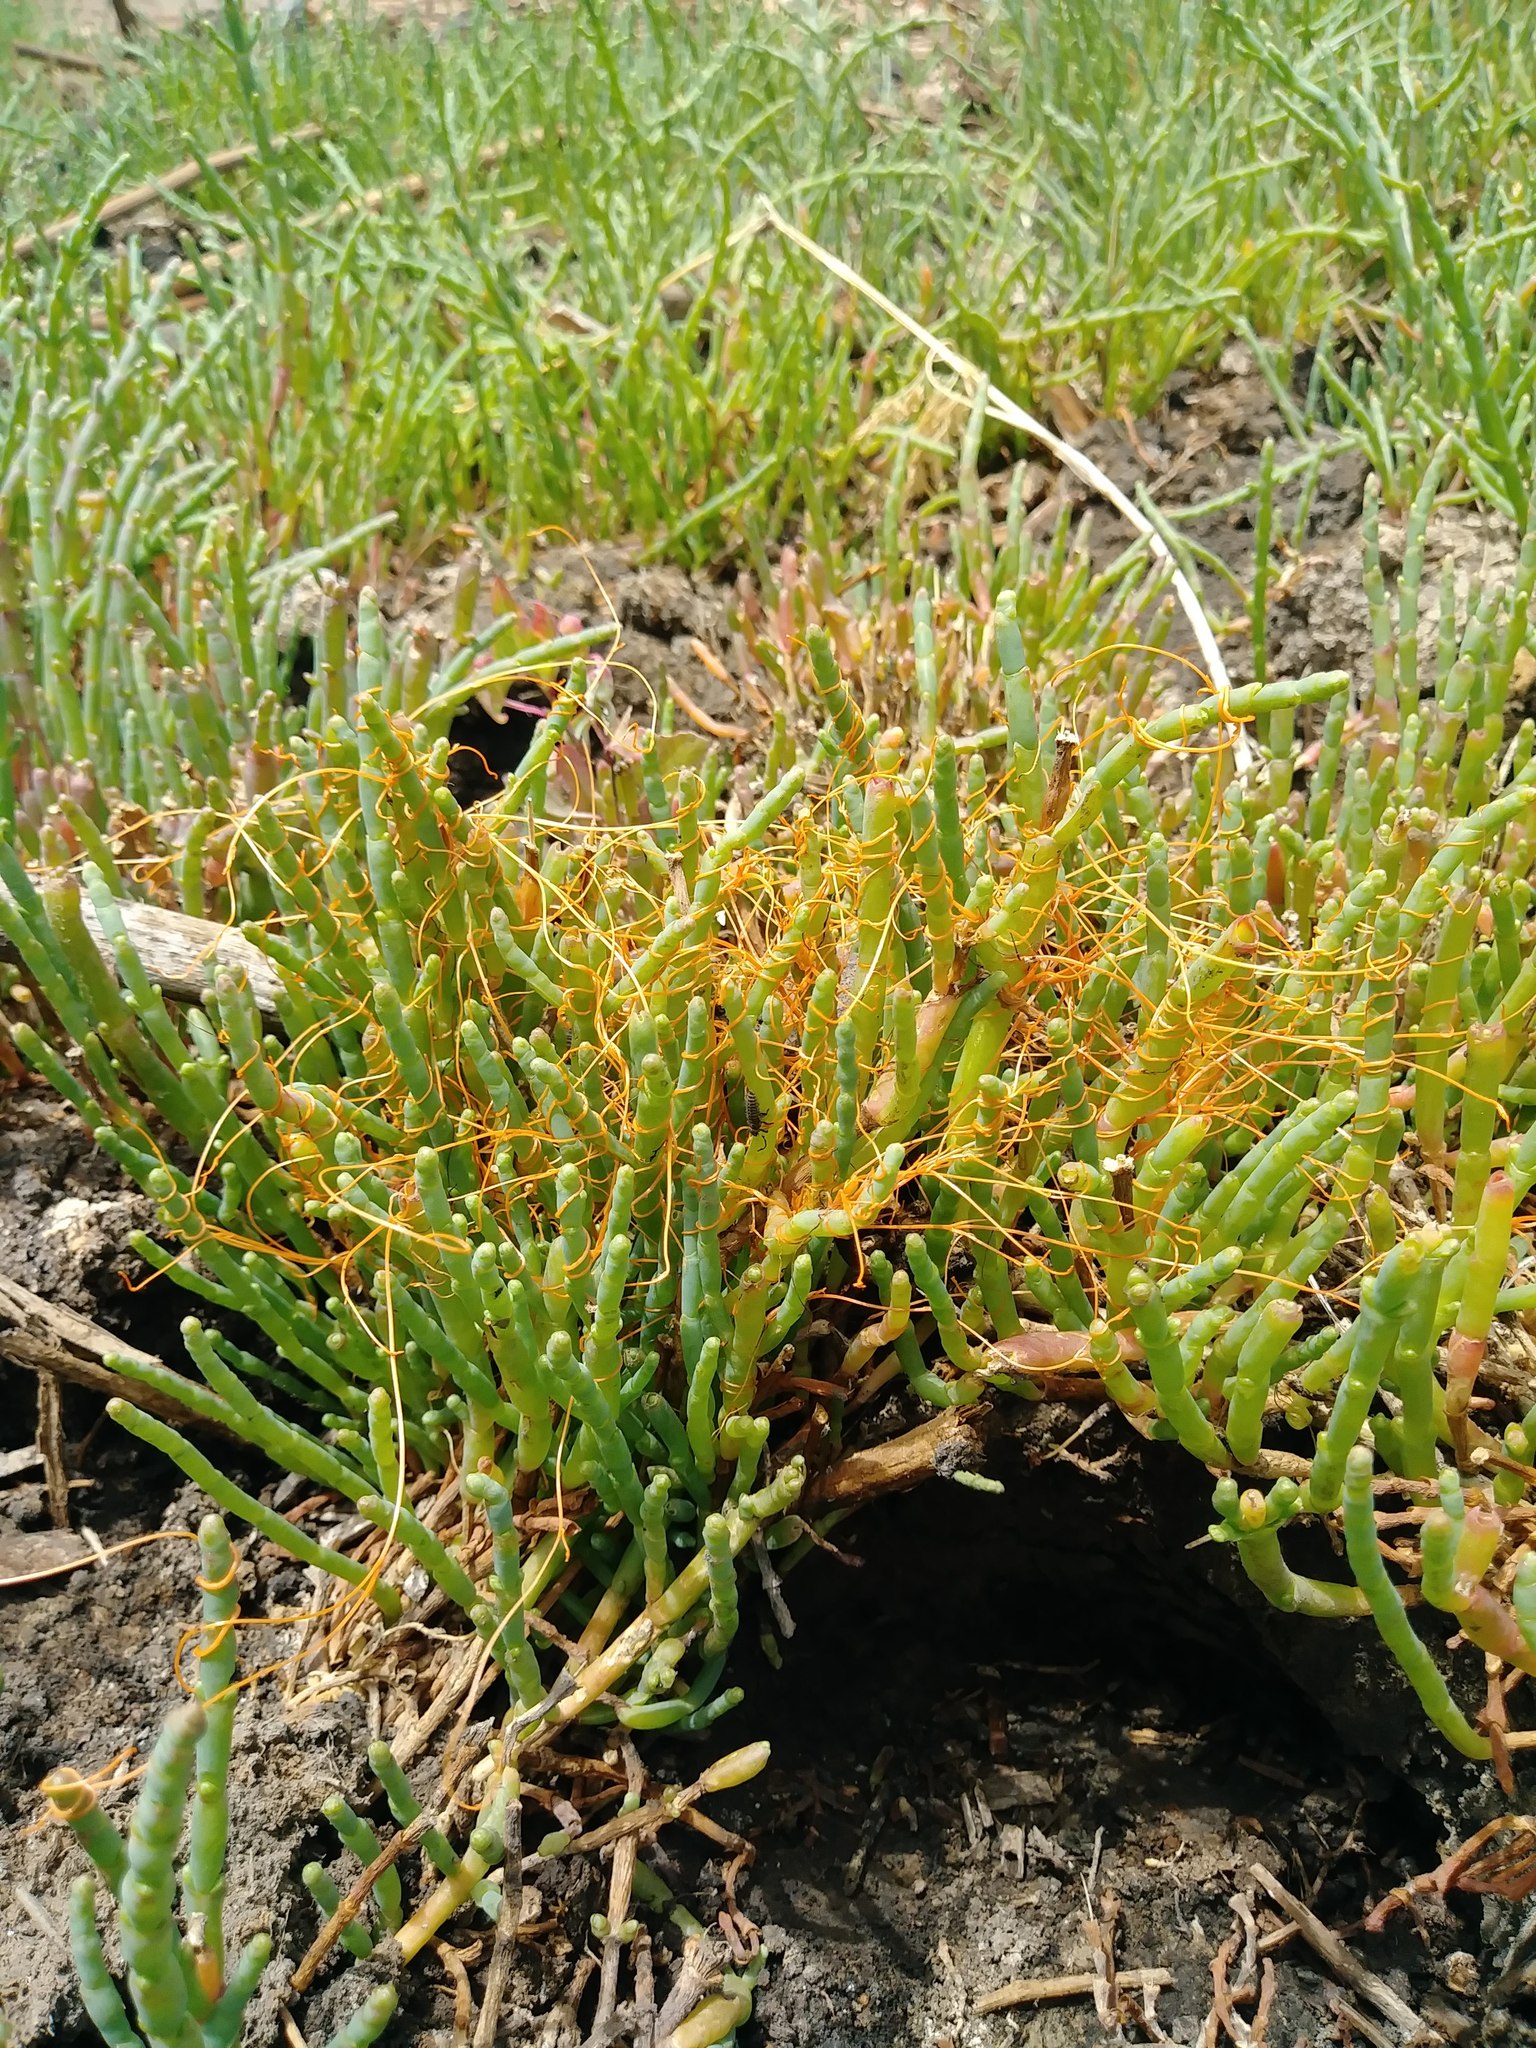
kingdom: Plantae
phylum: Tracheophyta
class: Magnoliopsida
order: Solanales
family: Convolvulaceae
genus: Cuscuta
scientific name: Cuscuta pacifica
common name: Large saltmarsh dodder
